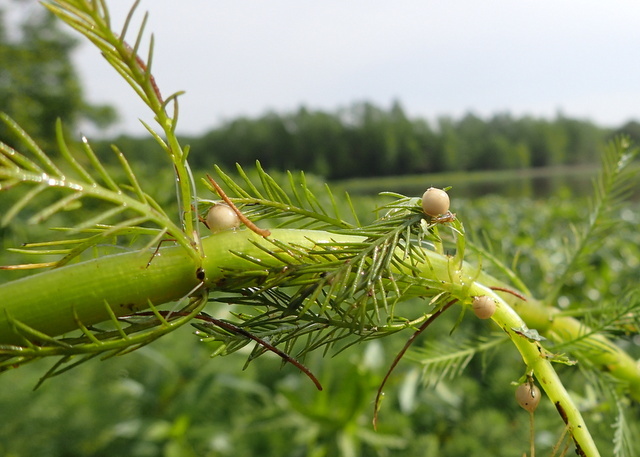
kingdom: Plantae
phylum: Tracheophyta
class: Magnoliopsida
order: Saxifragales
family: Haloragaceae
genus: Myriophyllum
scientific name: Myriophyllum aquaticum
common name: Parrot's feather
